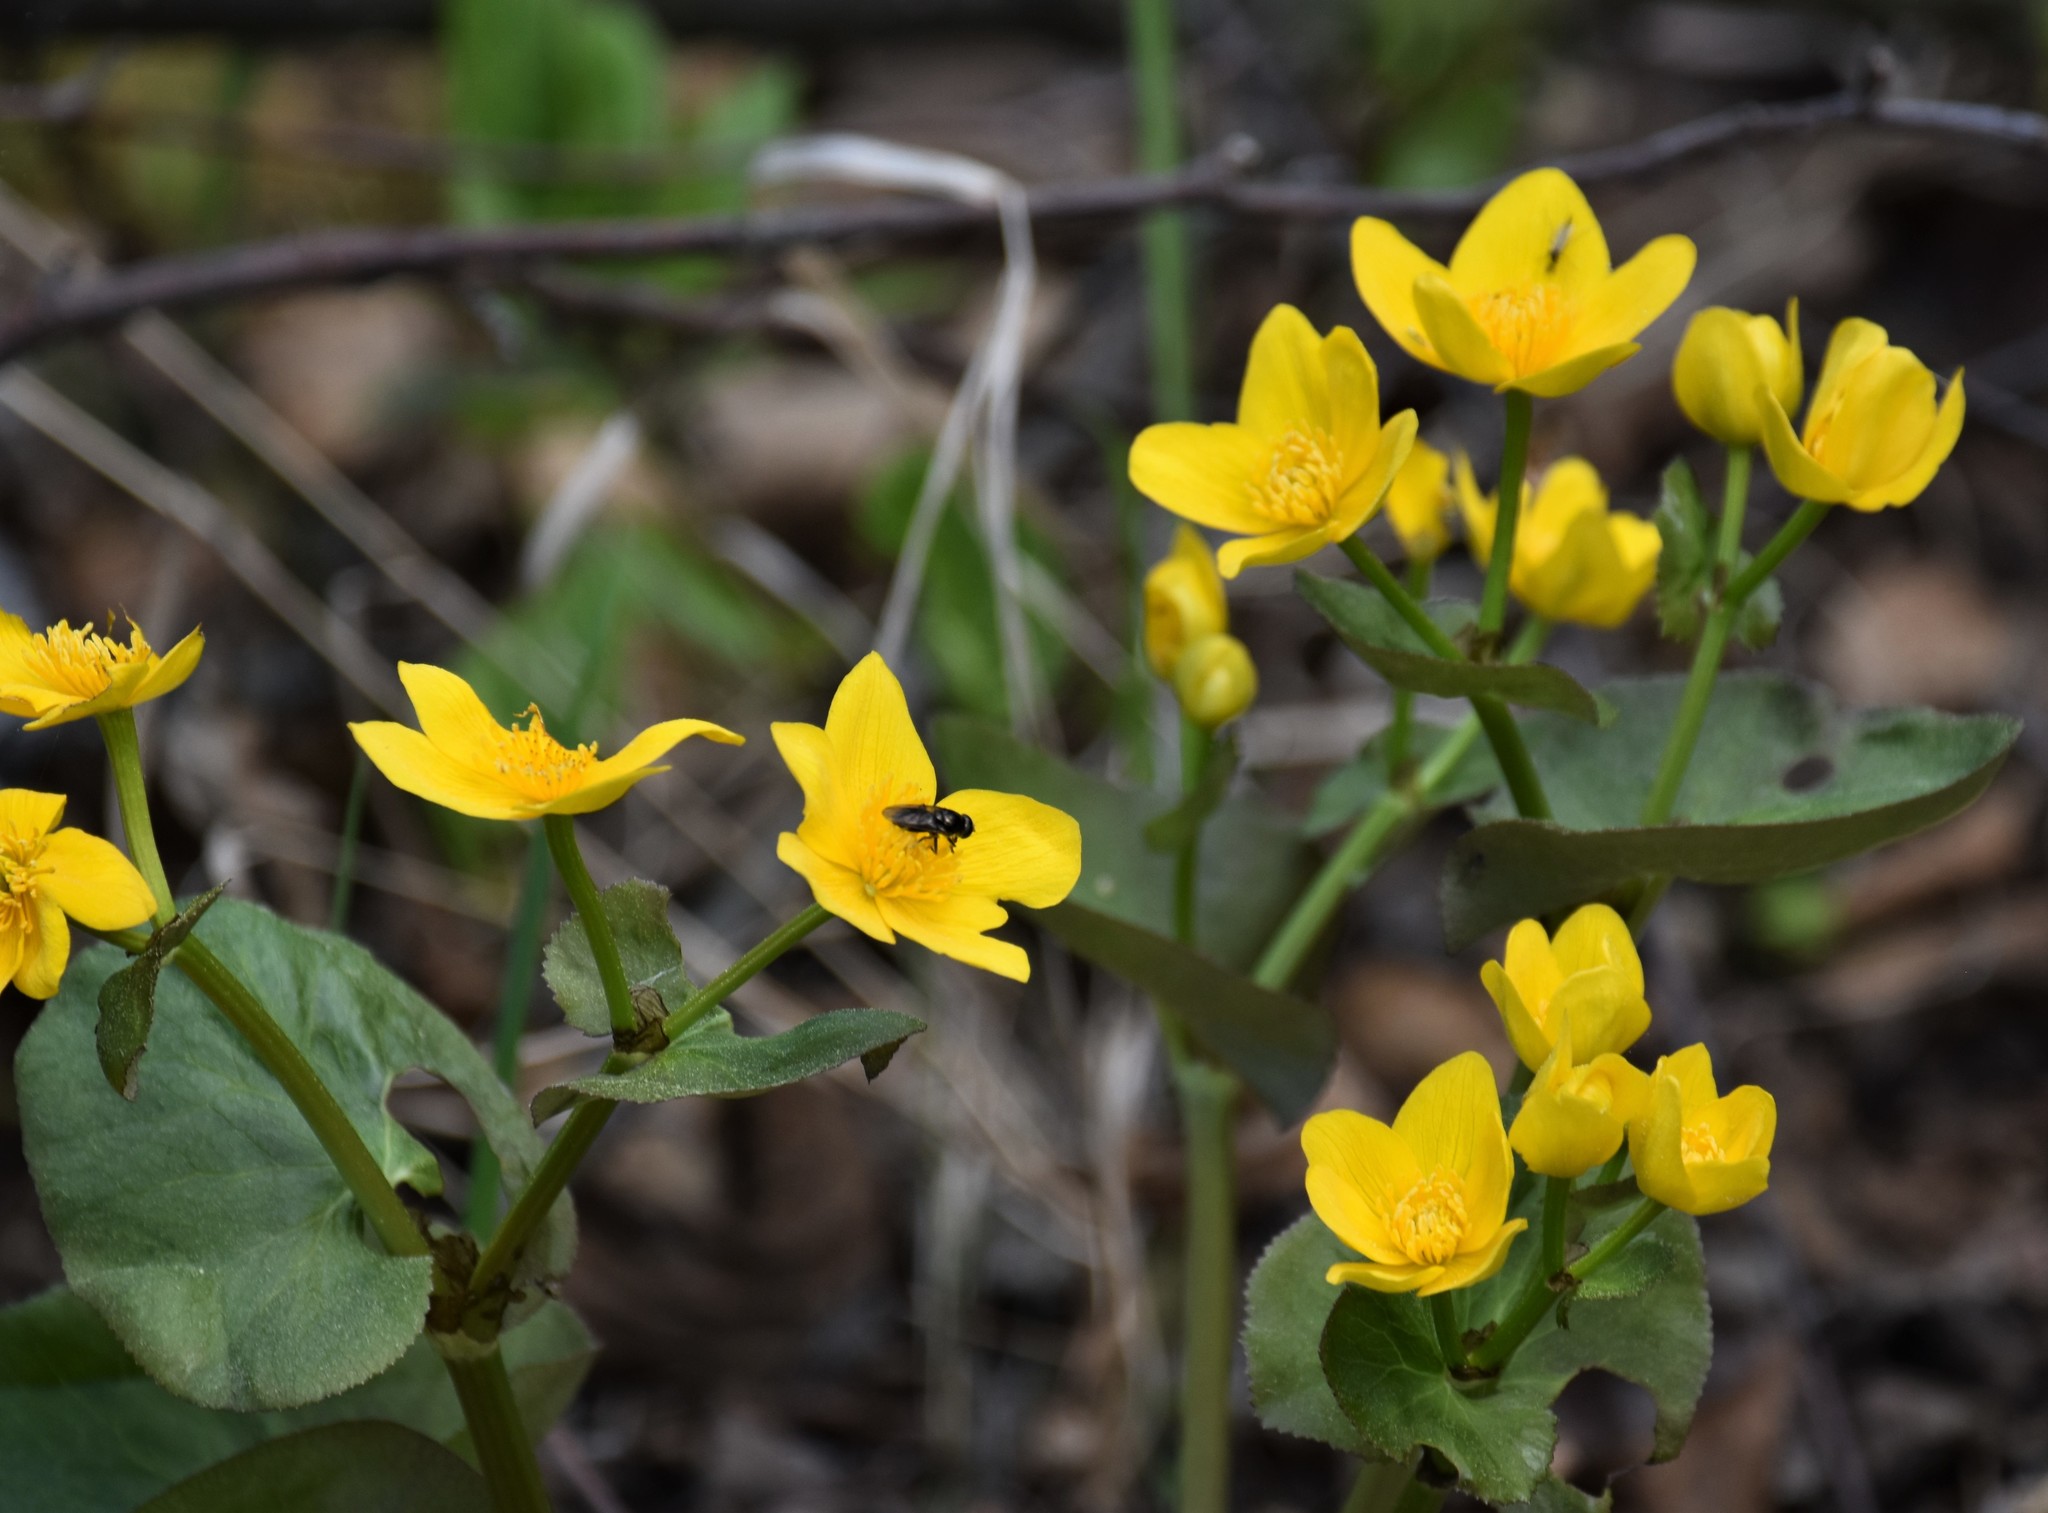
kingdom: Plantae
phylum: Tracheophyta
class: Magnoliopsida
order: Ranunculales
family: Ranunculaceae
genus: Caltha
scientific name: Caltha palustris
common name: Marsh marigold
